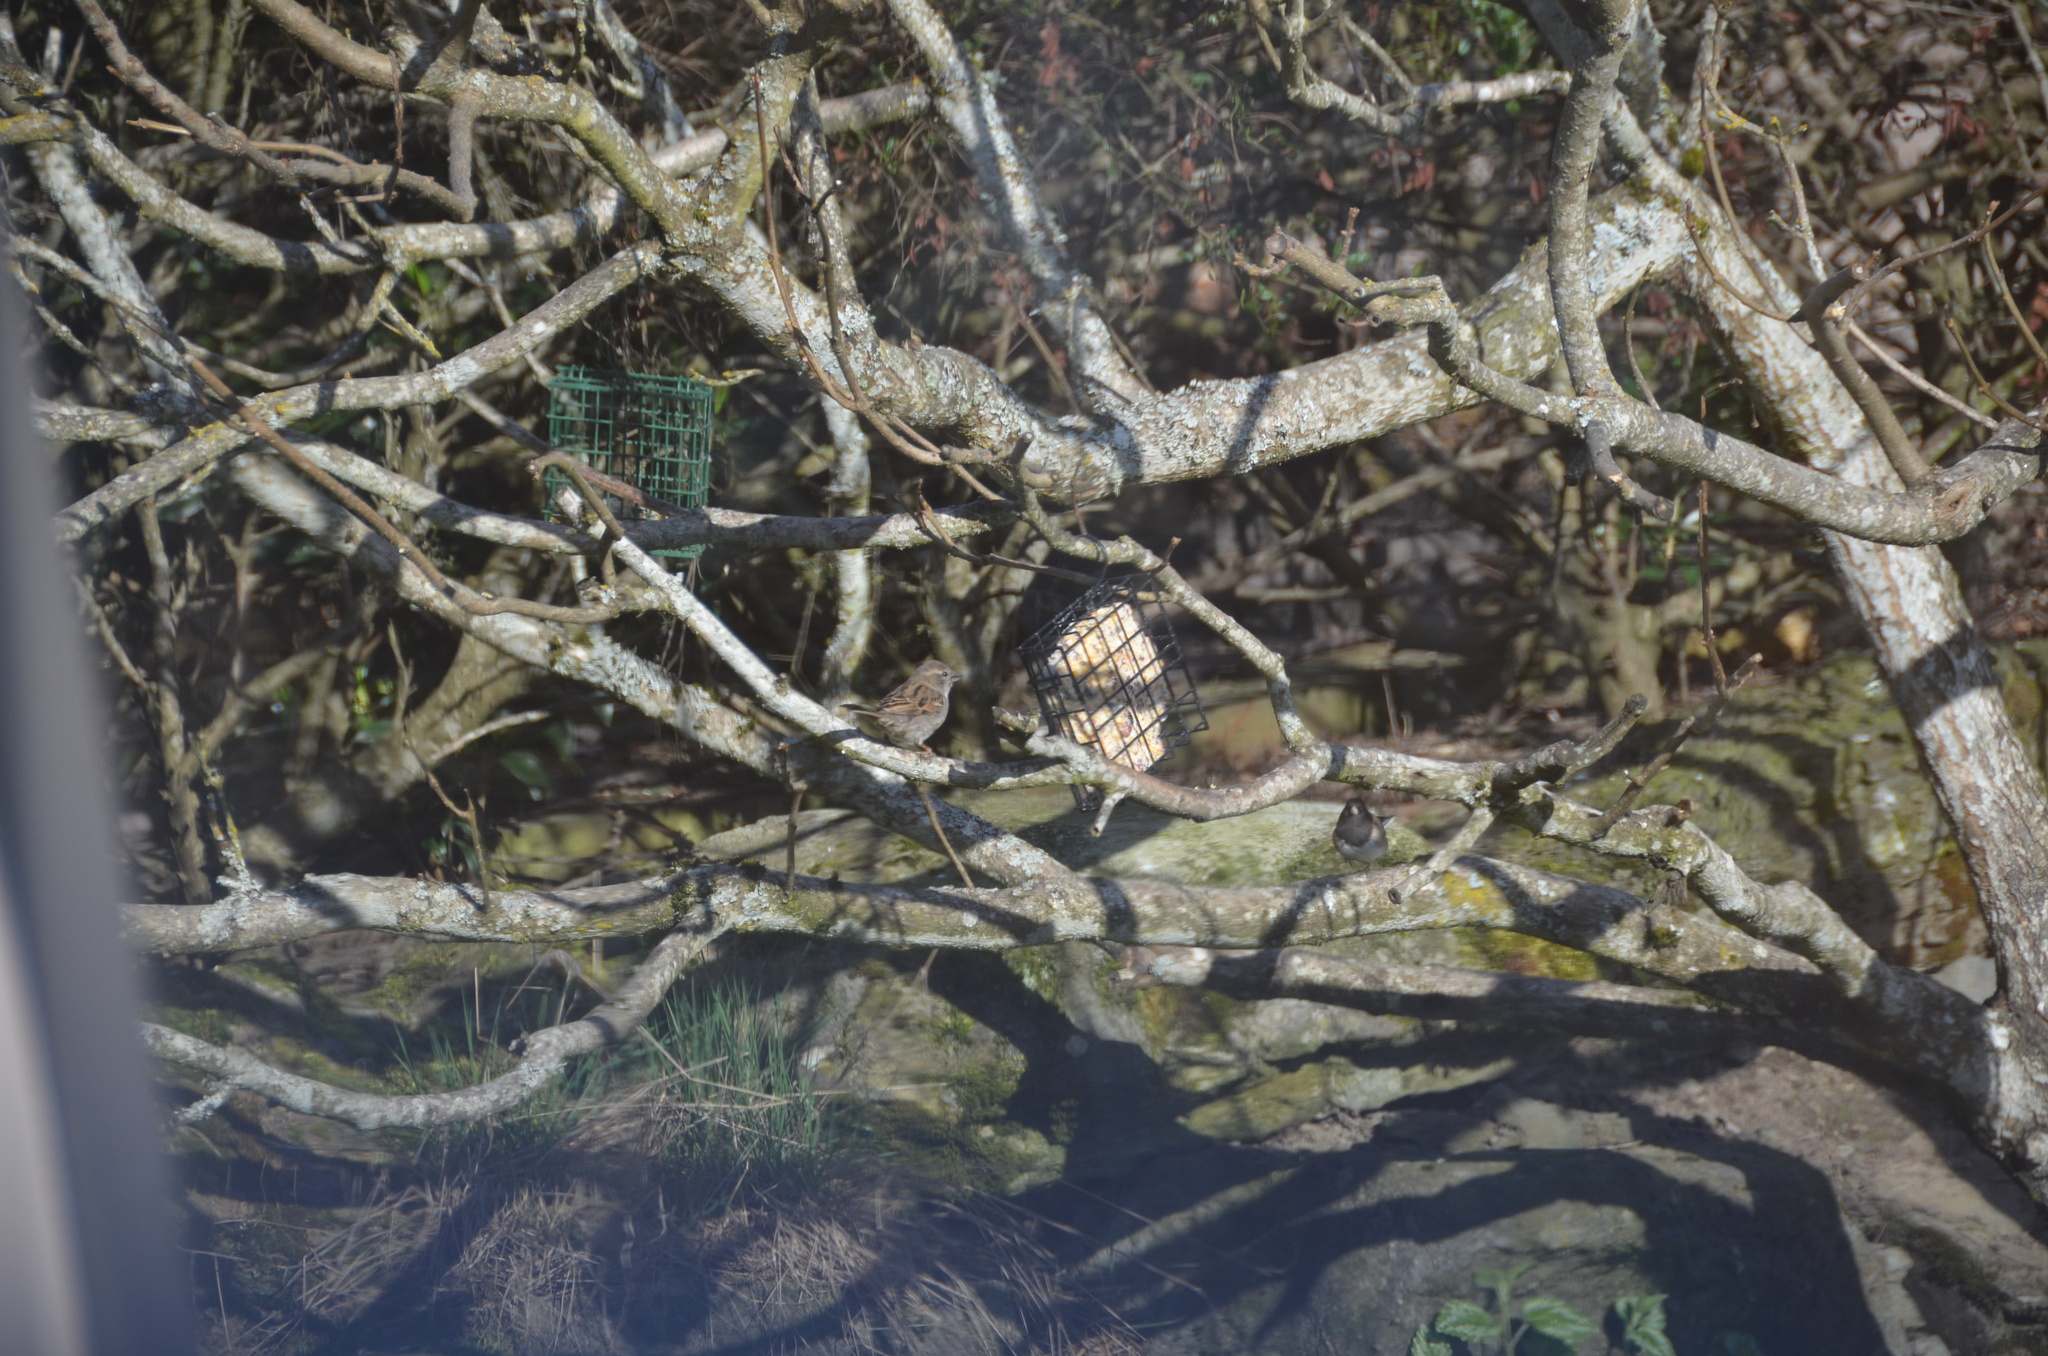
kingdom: Animalia
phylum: Chordata
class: Aves
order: Passeriformes
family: Passerellidae
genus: Junco
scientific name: Junco hyemalis
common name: Dark-eyed junco
